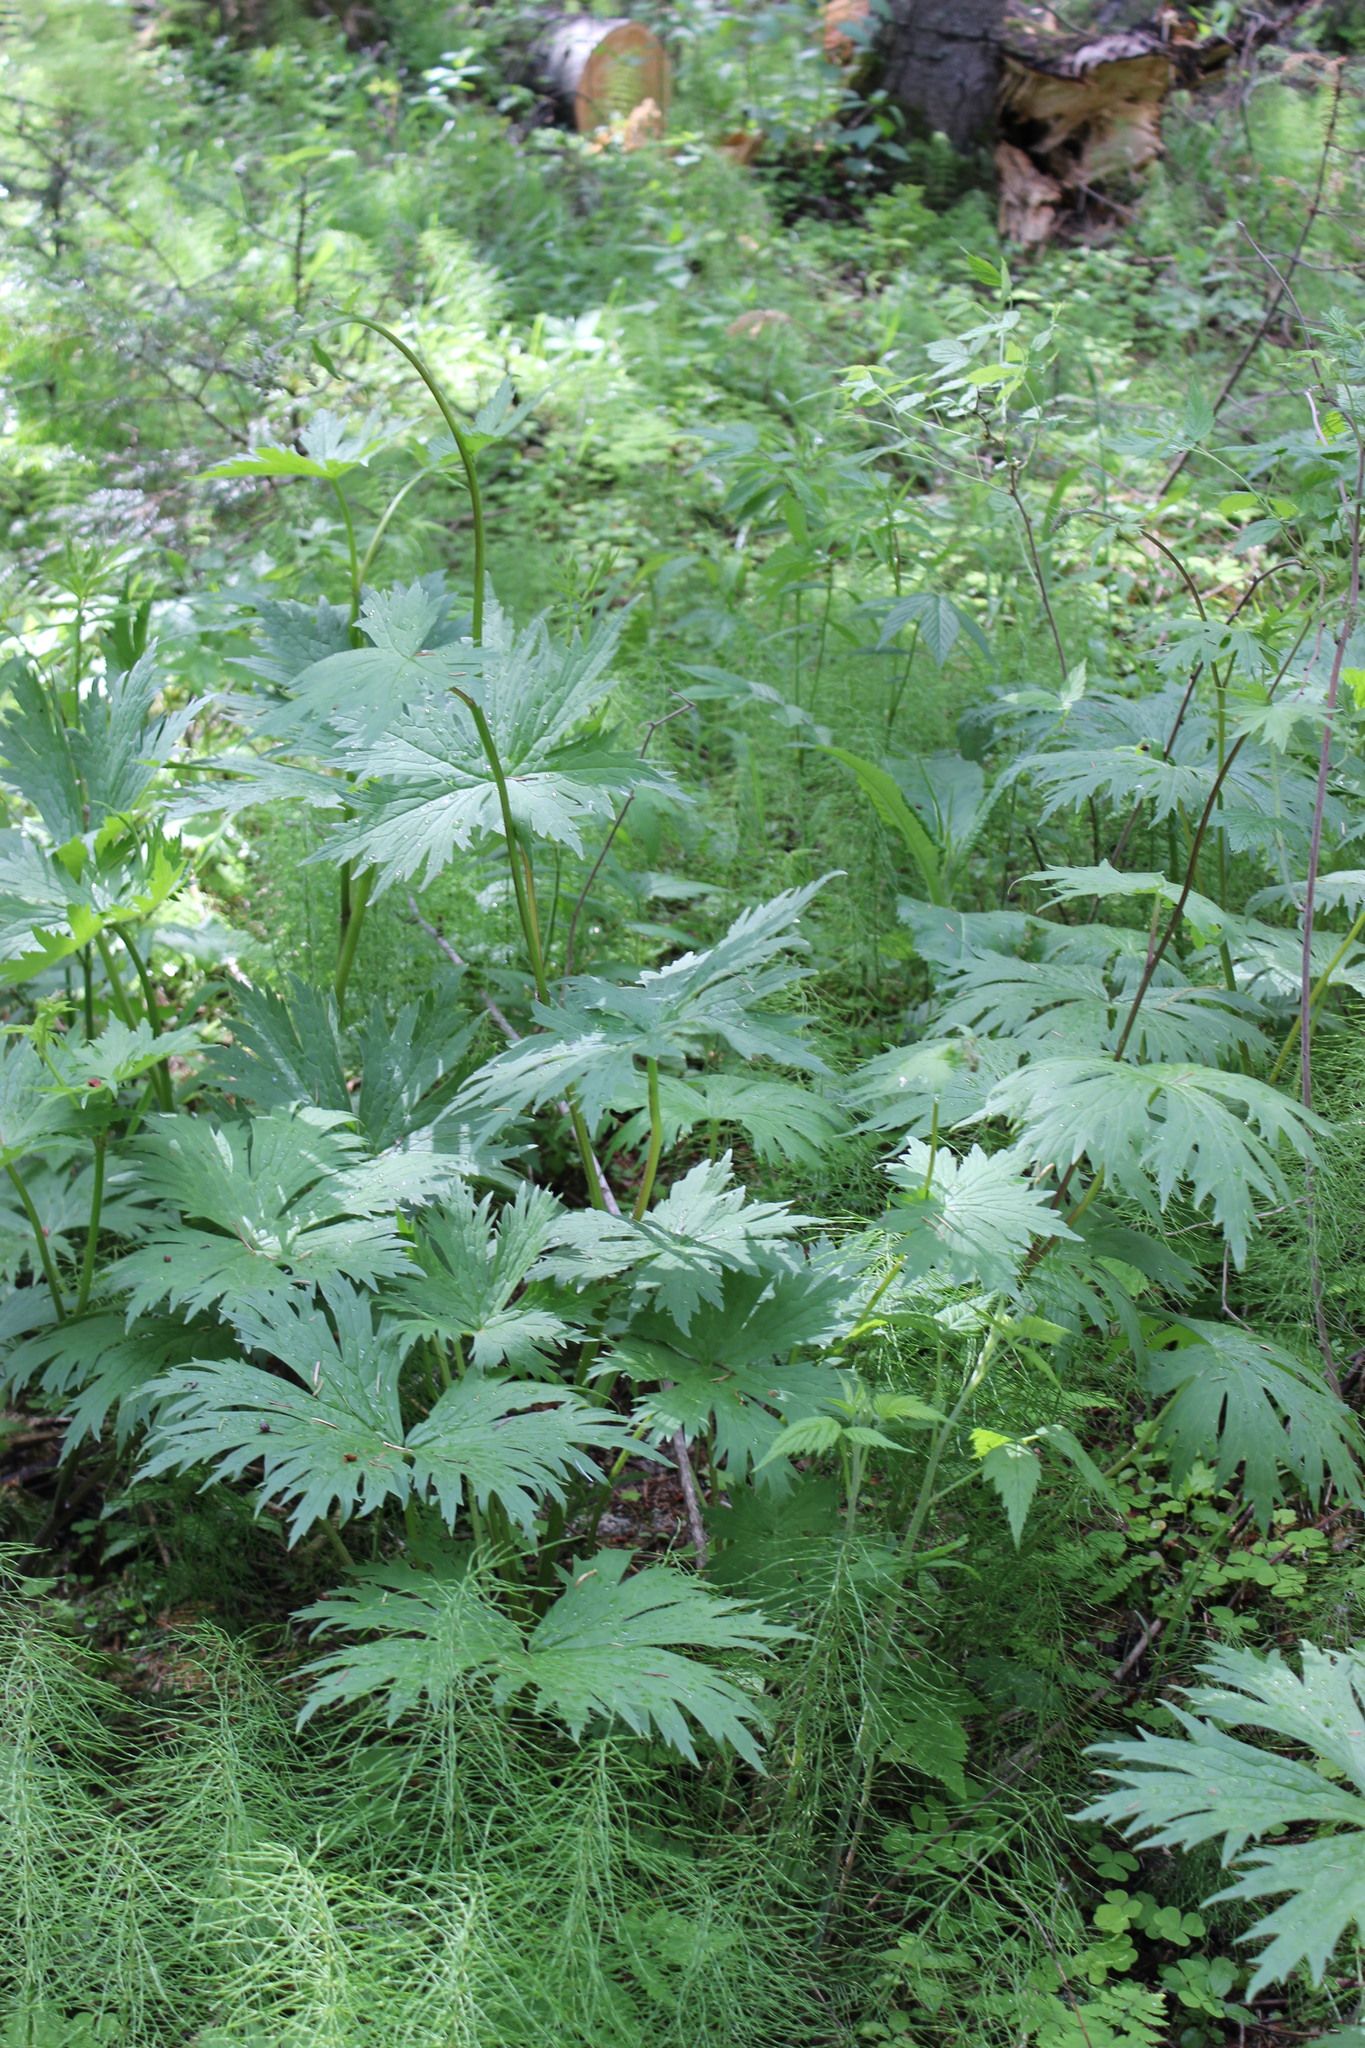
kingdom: Plantae
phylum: Tracheophyta
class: Magnoliopsida
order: Ranunculales
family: Ranunculaceae
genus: Aconitum
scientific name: Aconitum septentrionale
